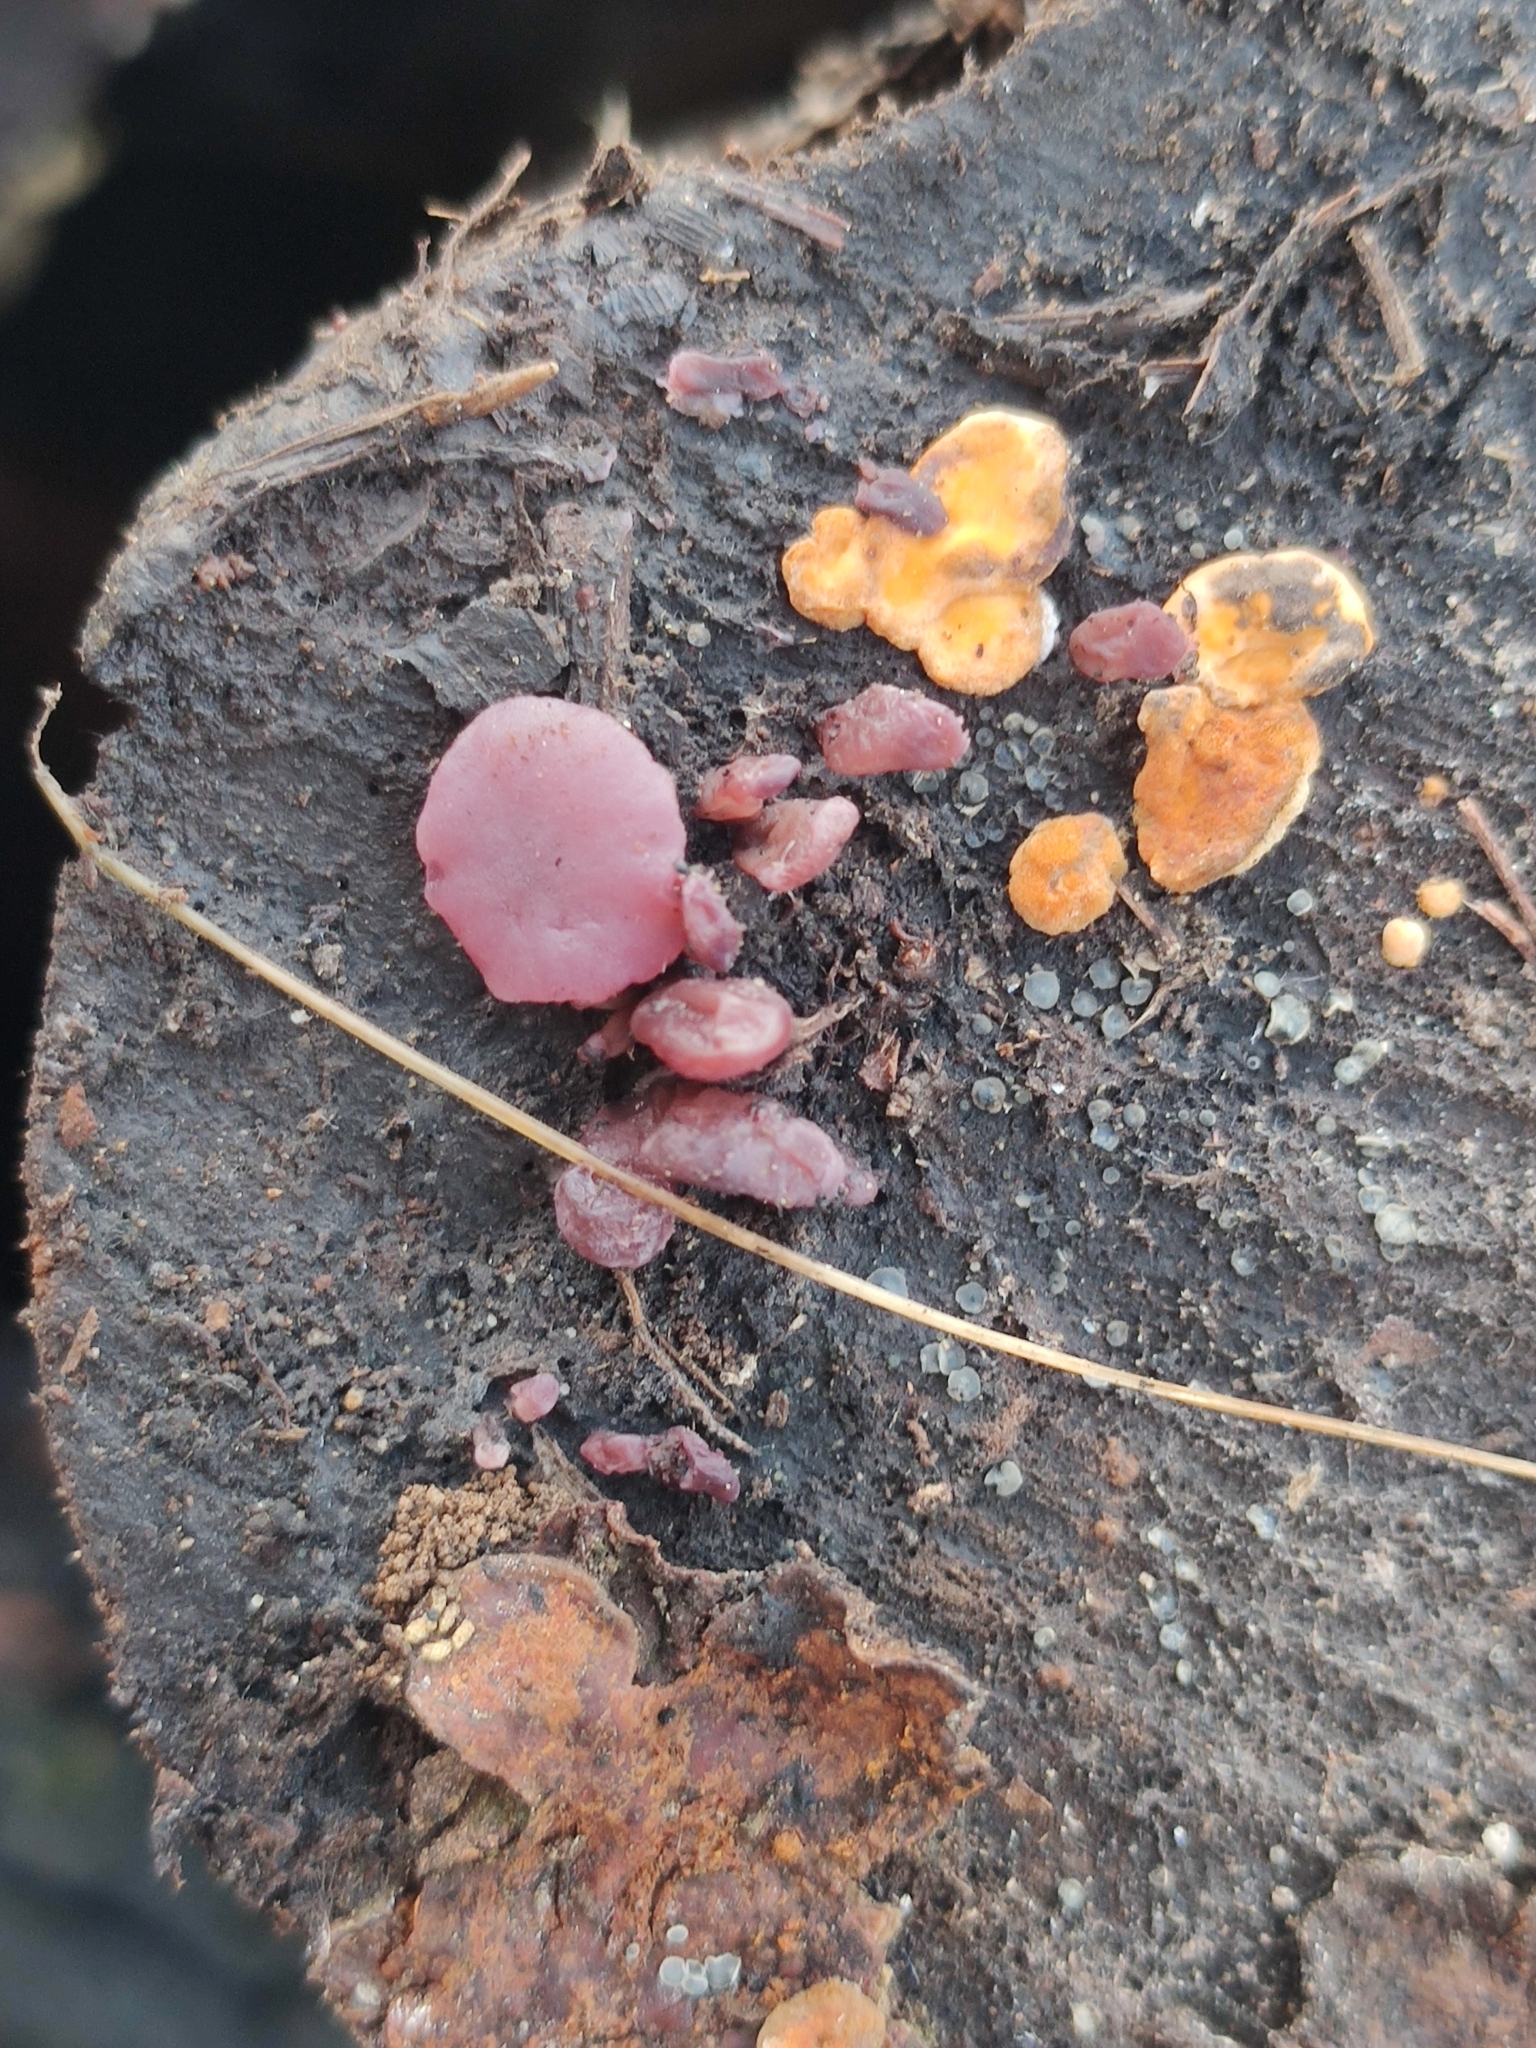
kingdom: Fungi
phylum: Ascomycota
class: Leotiomycetes
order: Helotiales
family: Gelatinodiscaceae
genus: Ascocoryne
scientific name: Ascocoryne sarcoides
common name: Purple jellydisc
